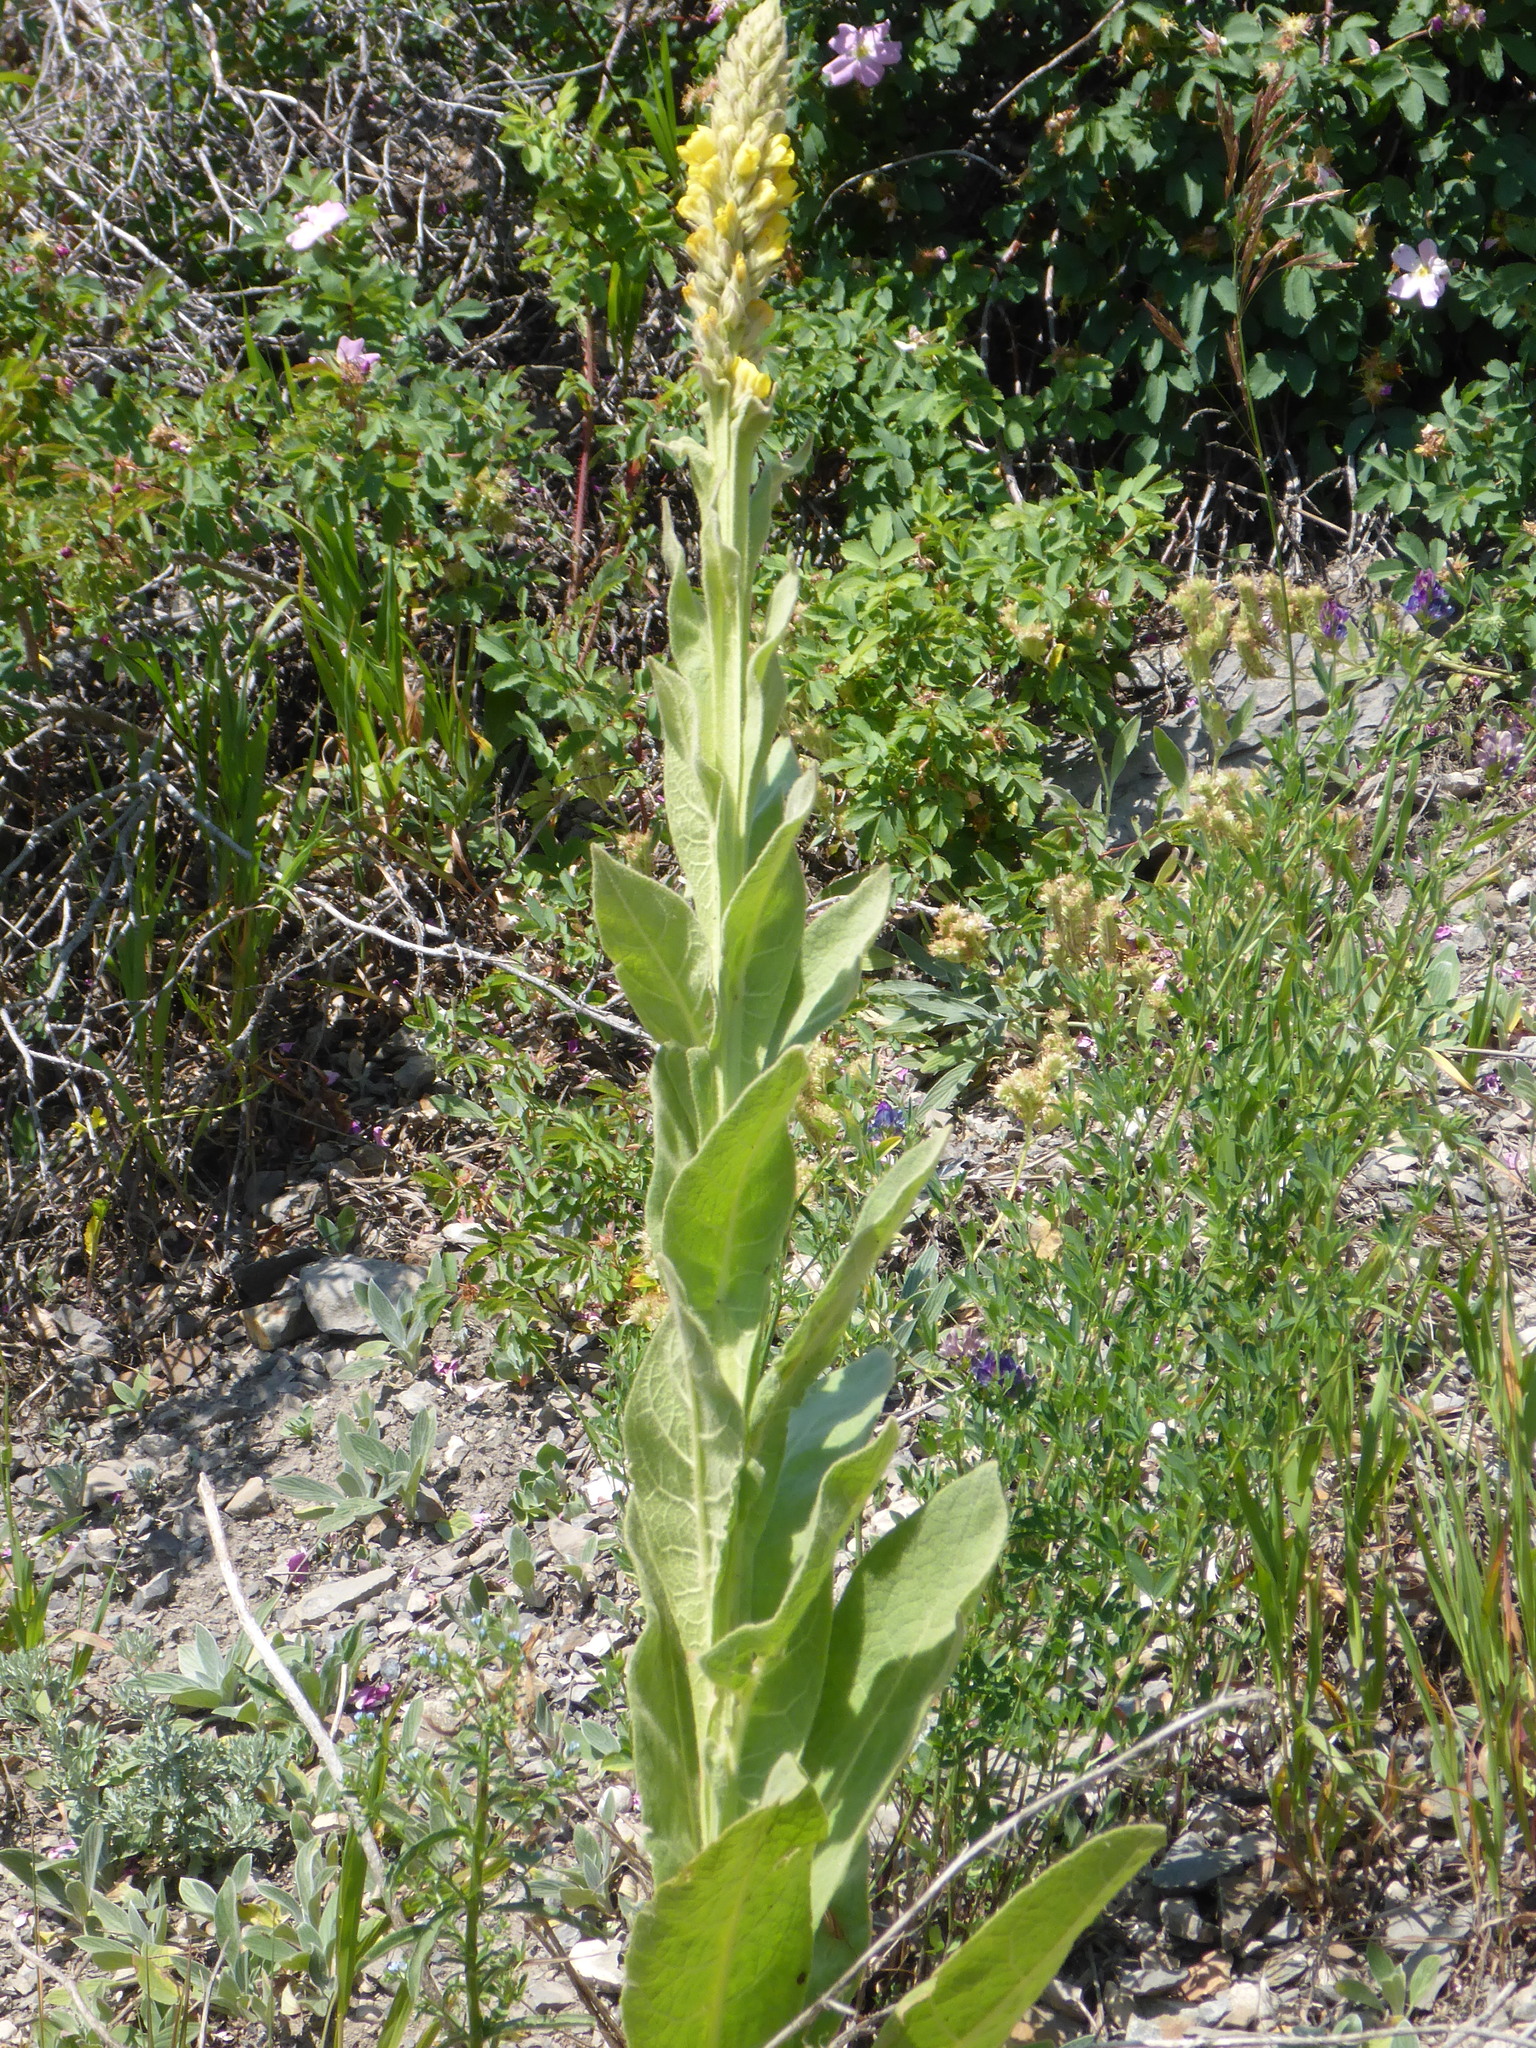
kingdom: Plantae
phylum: Tracheophyta
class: Magnoliopsida
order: Lamiales
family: Scrophulariaceae
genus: Verbascum
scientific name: Verbascum thapsus
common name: Common mullein
